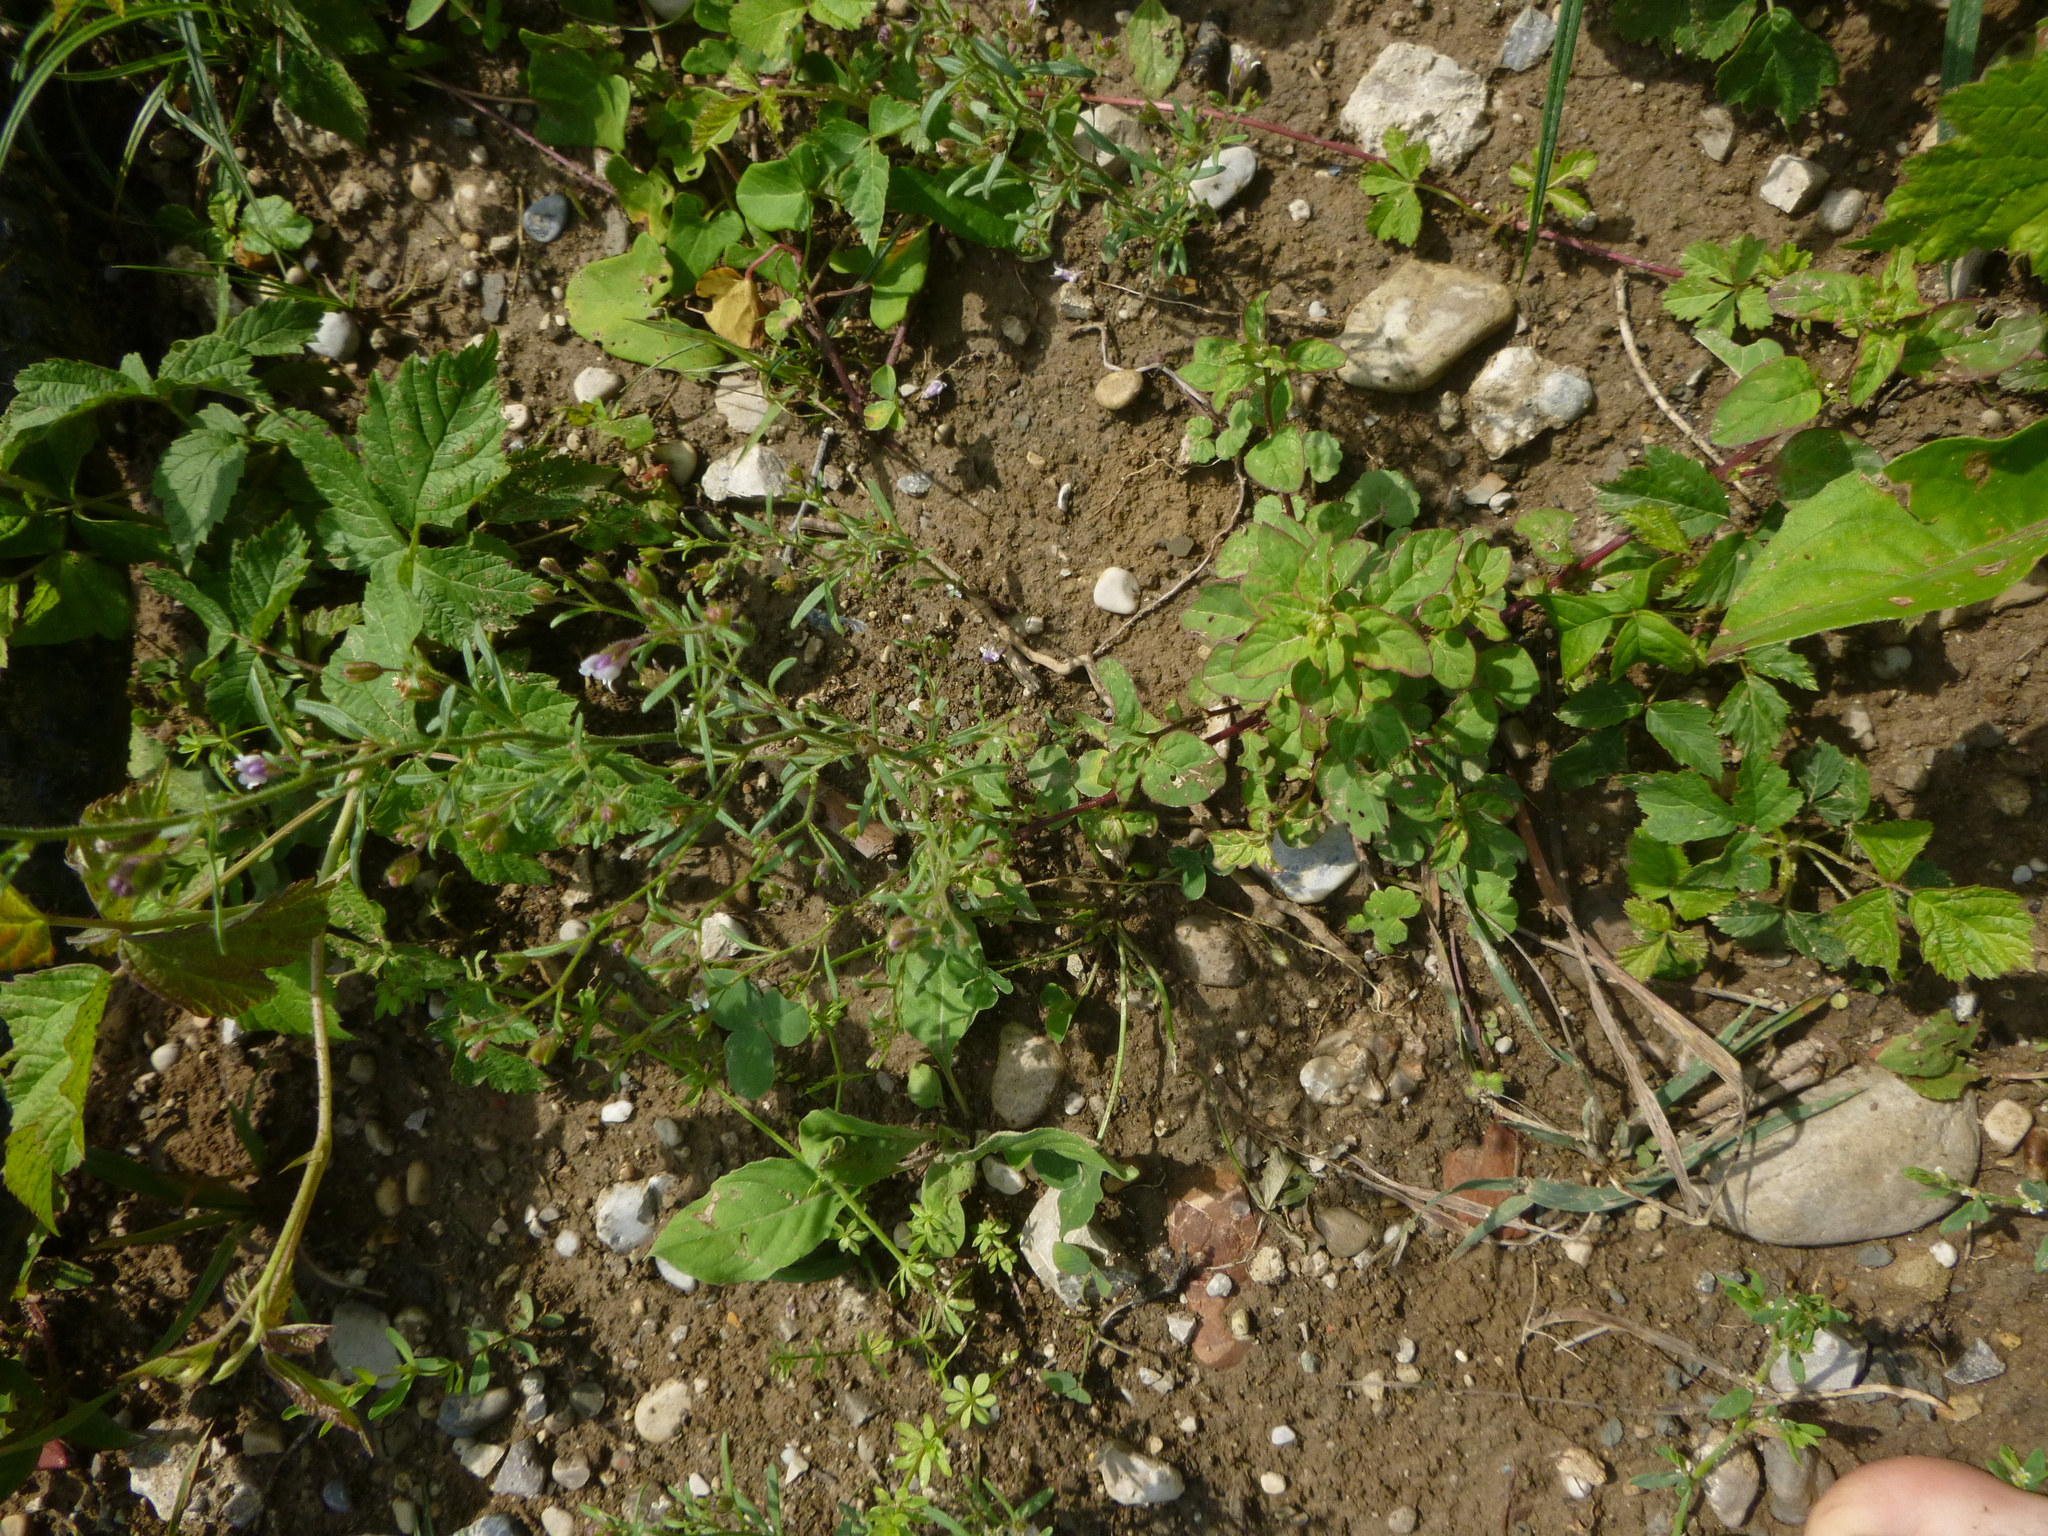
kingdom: Plantae
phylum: Tracheophyta
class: Magnoliopsida
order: Lamiales
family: Plantaginaceae
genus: Chaenorhinum
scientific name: Chaenorhinum minus
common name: Dwarf snapdragon
